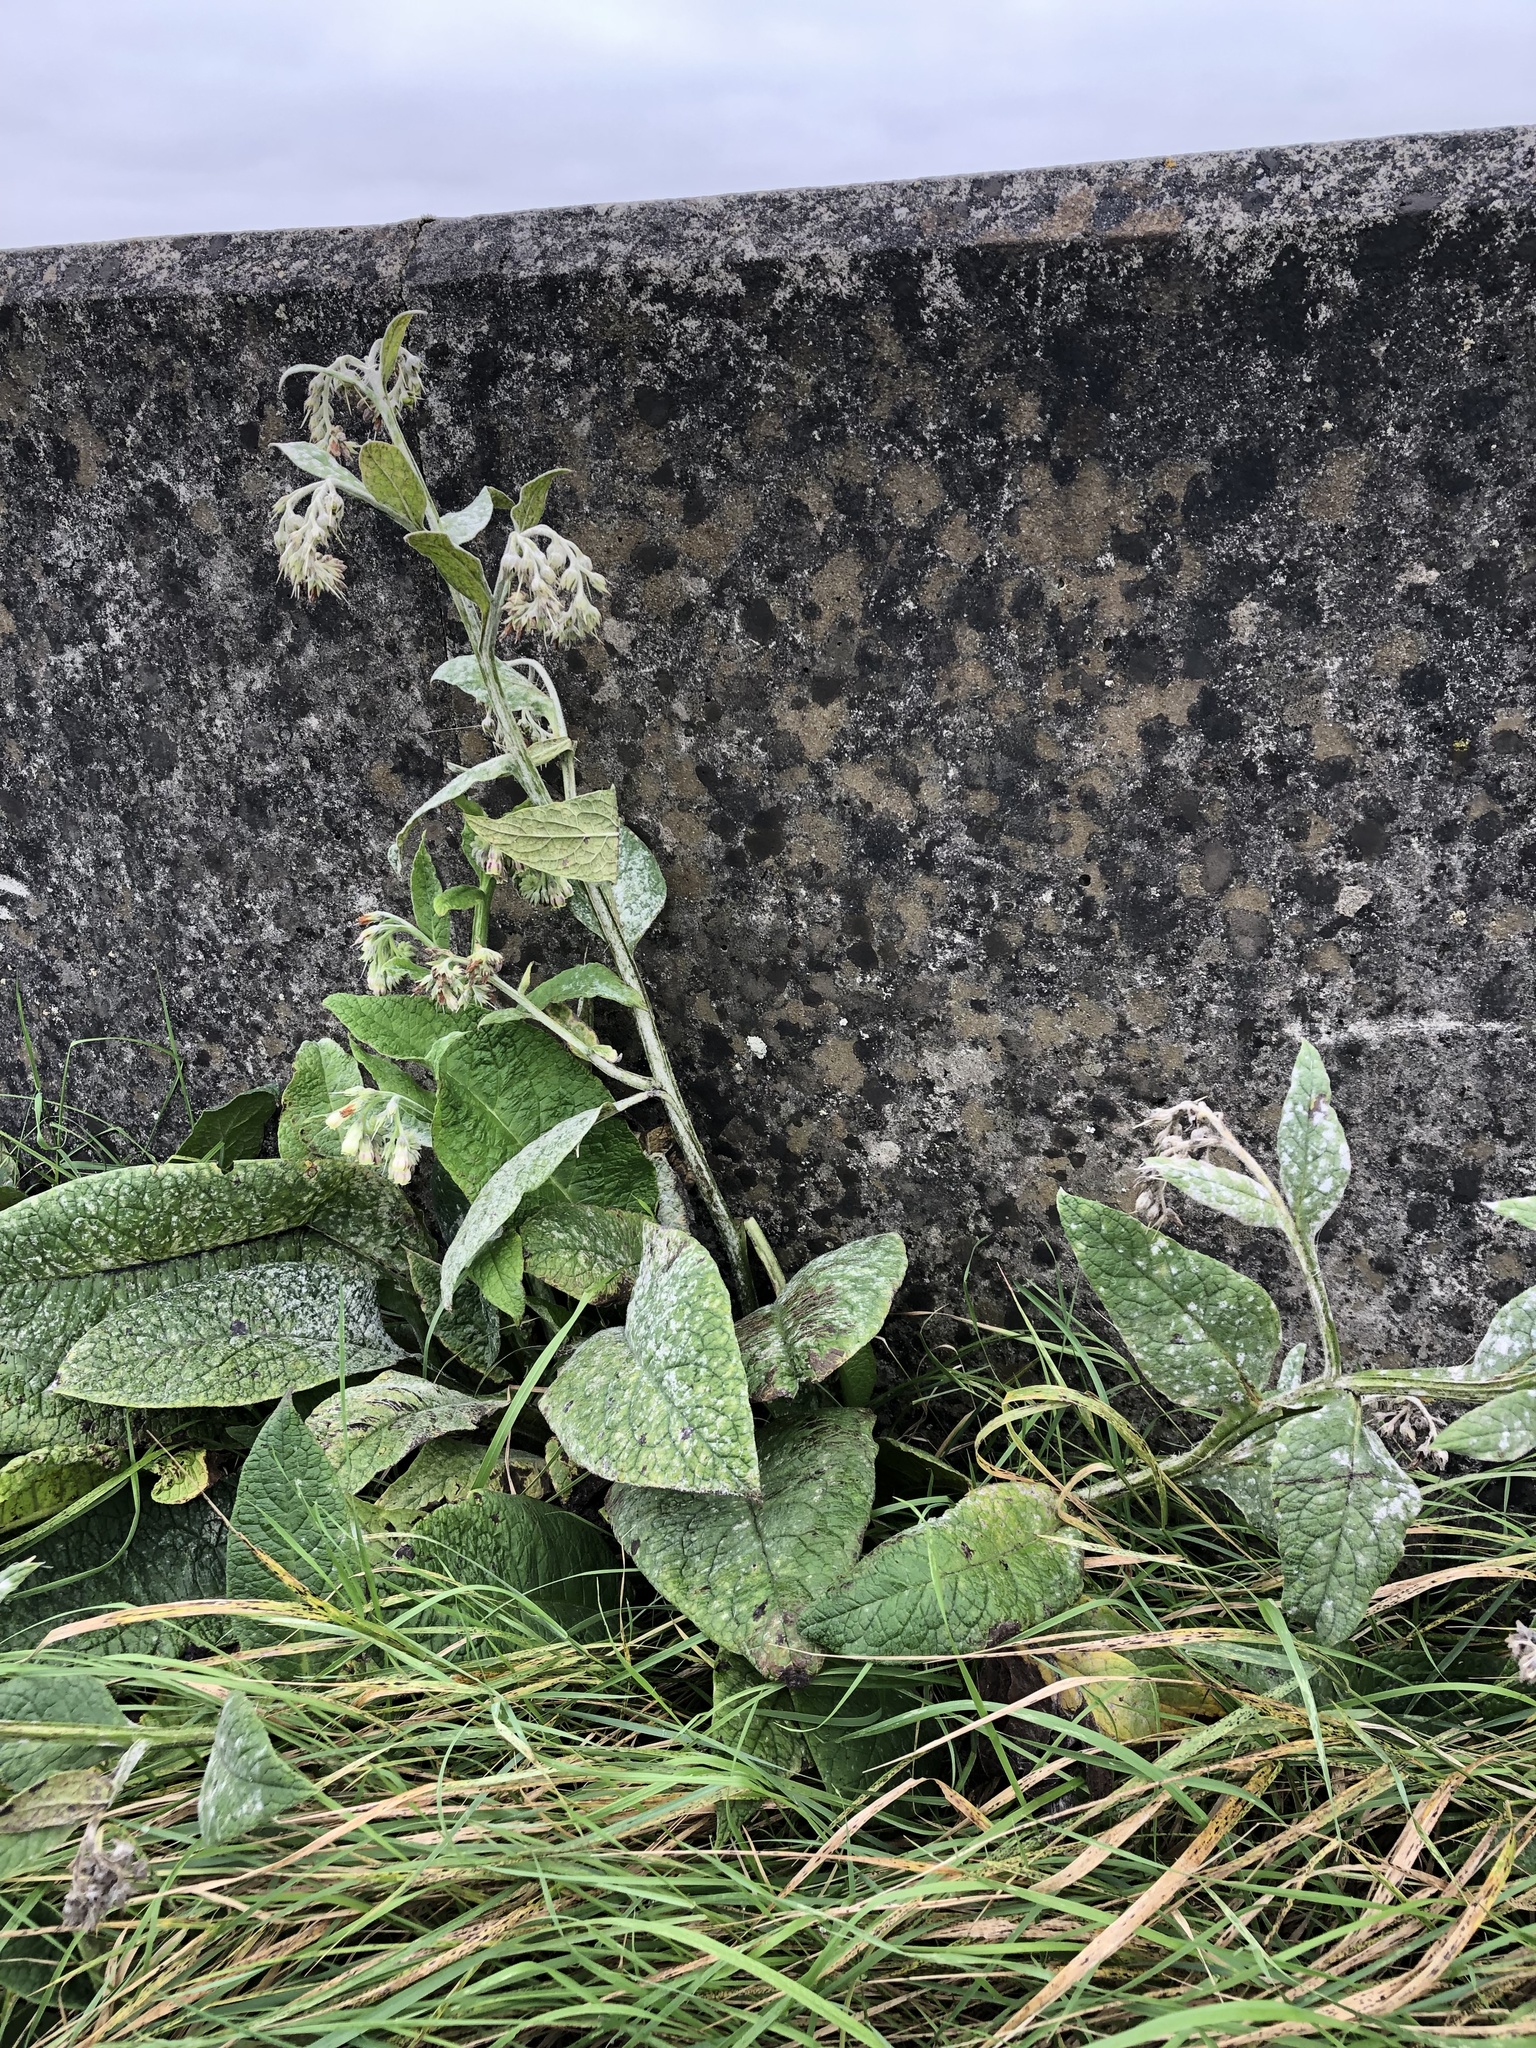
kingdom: Plantae
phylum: Tracheophyta
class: Magnoliopsida
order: Boraginales
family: Boraginaceae
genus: Symphytum
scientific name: Symphytum officinale
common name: Common comfrey
